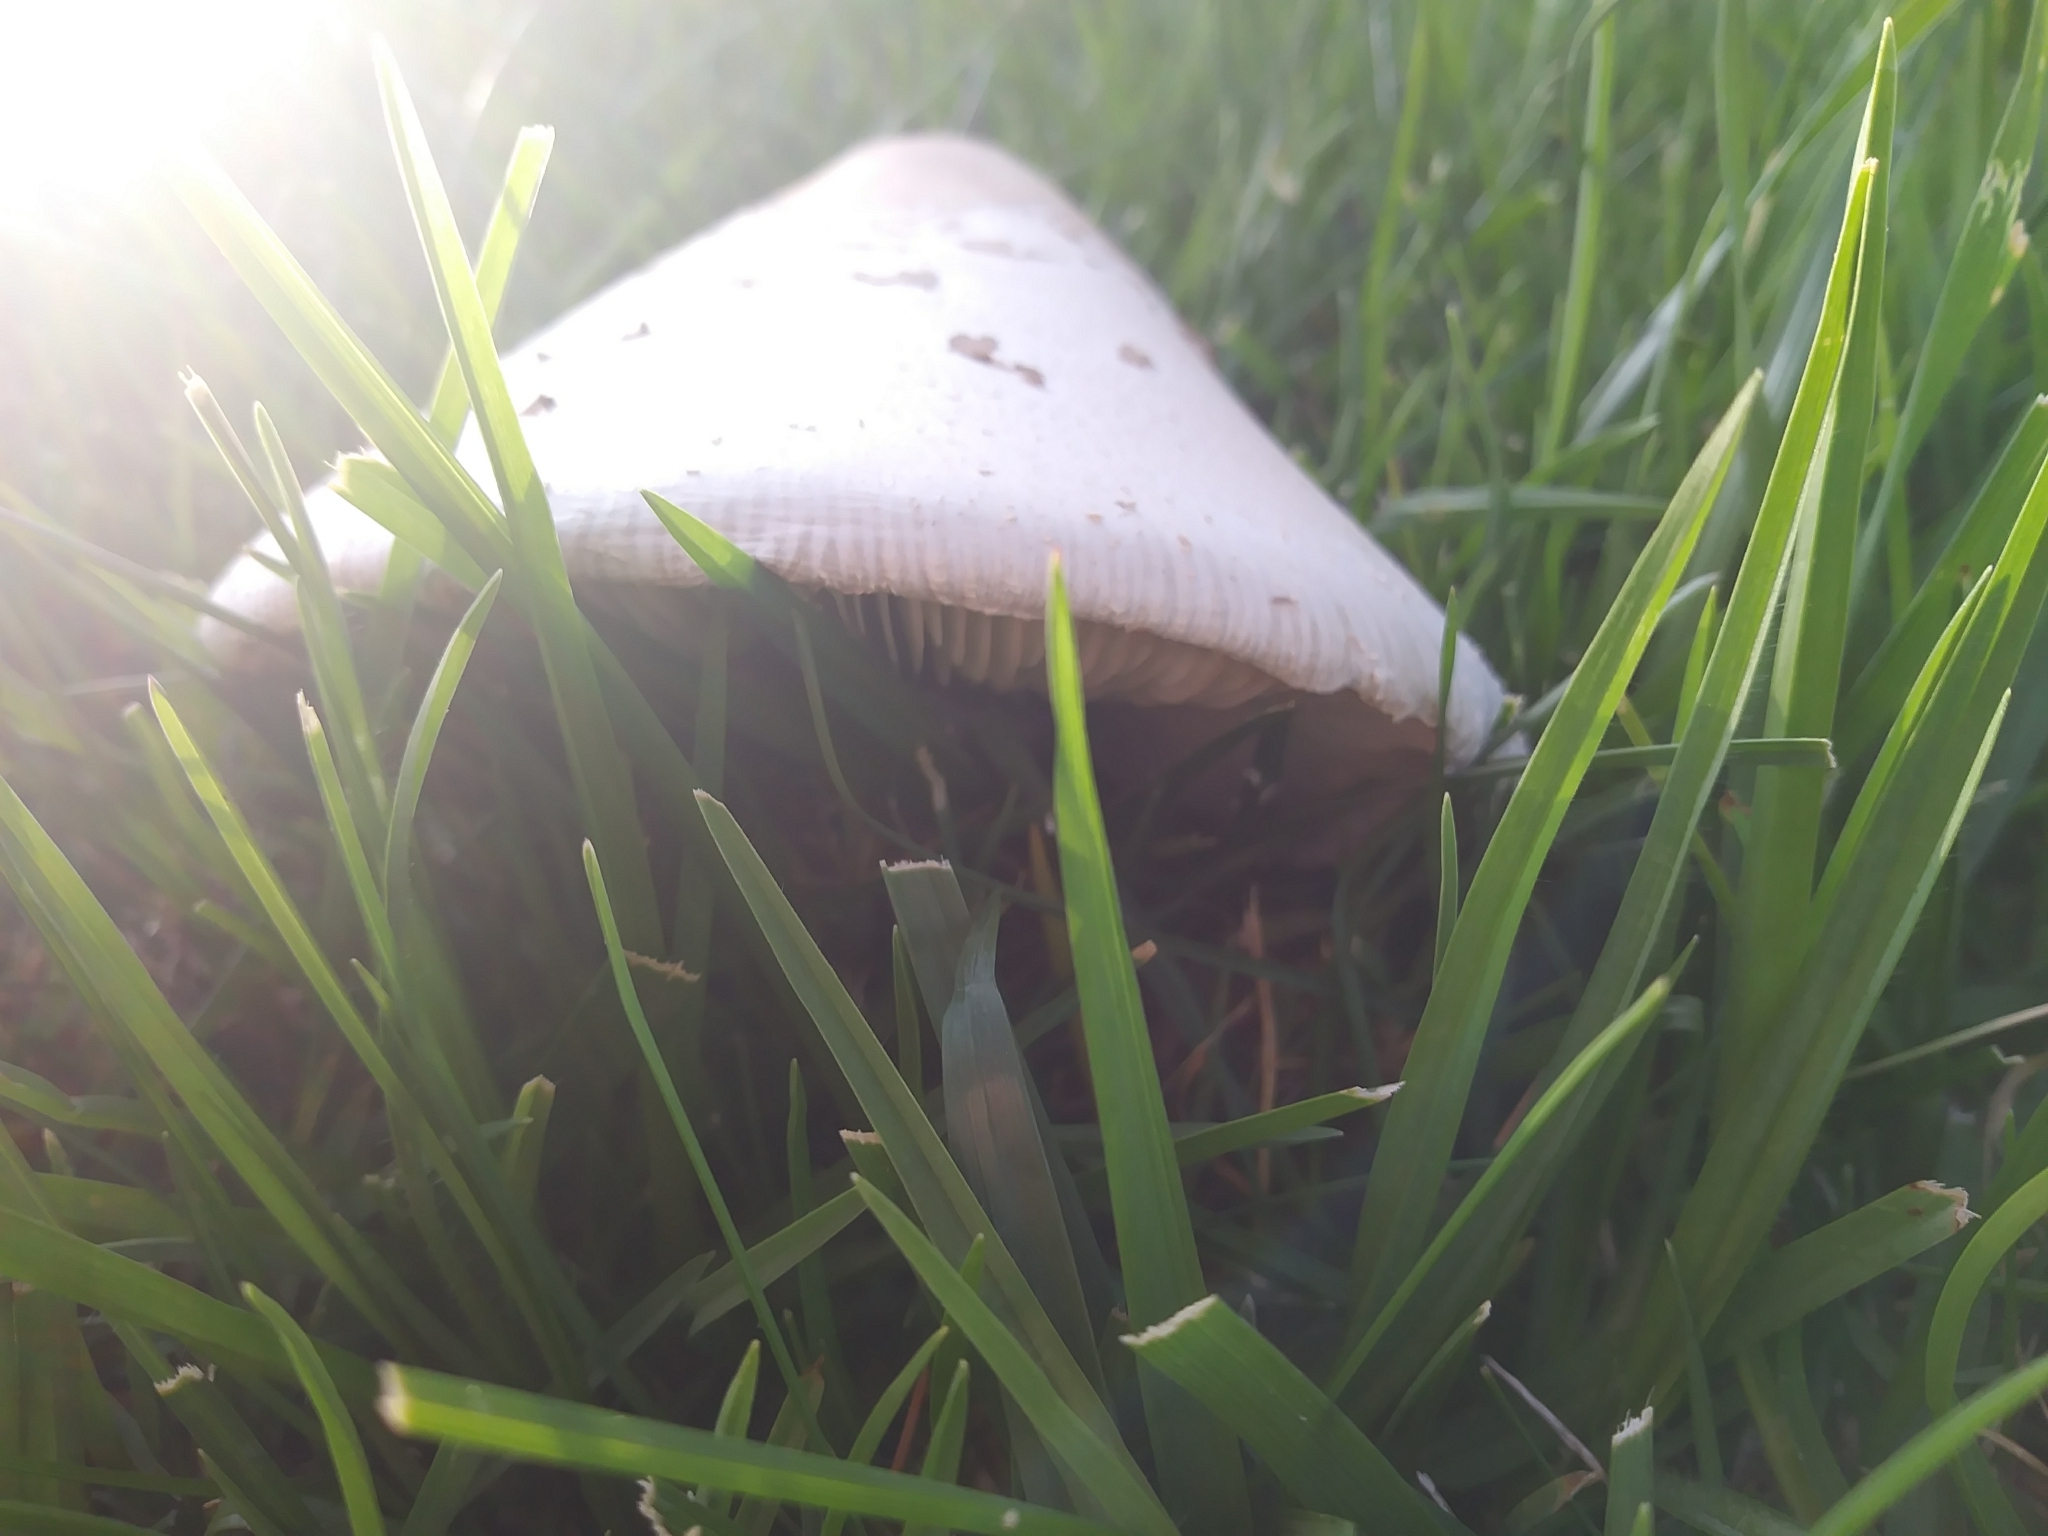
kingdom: Fungi
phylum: Basidiomycota
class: Agaricomycetes
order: Agaricales
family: Agaricaceae
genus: Chlorophyllum
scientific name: Chlorophyllum molybdites
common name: False parasol
